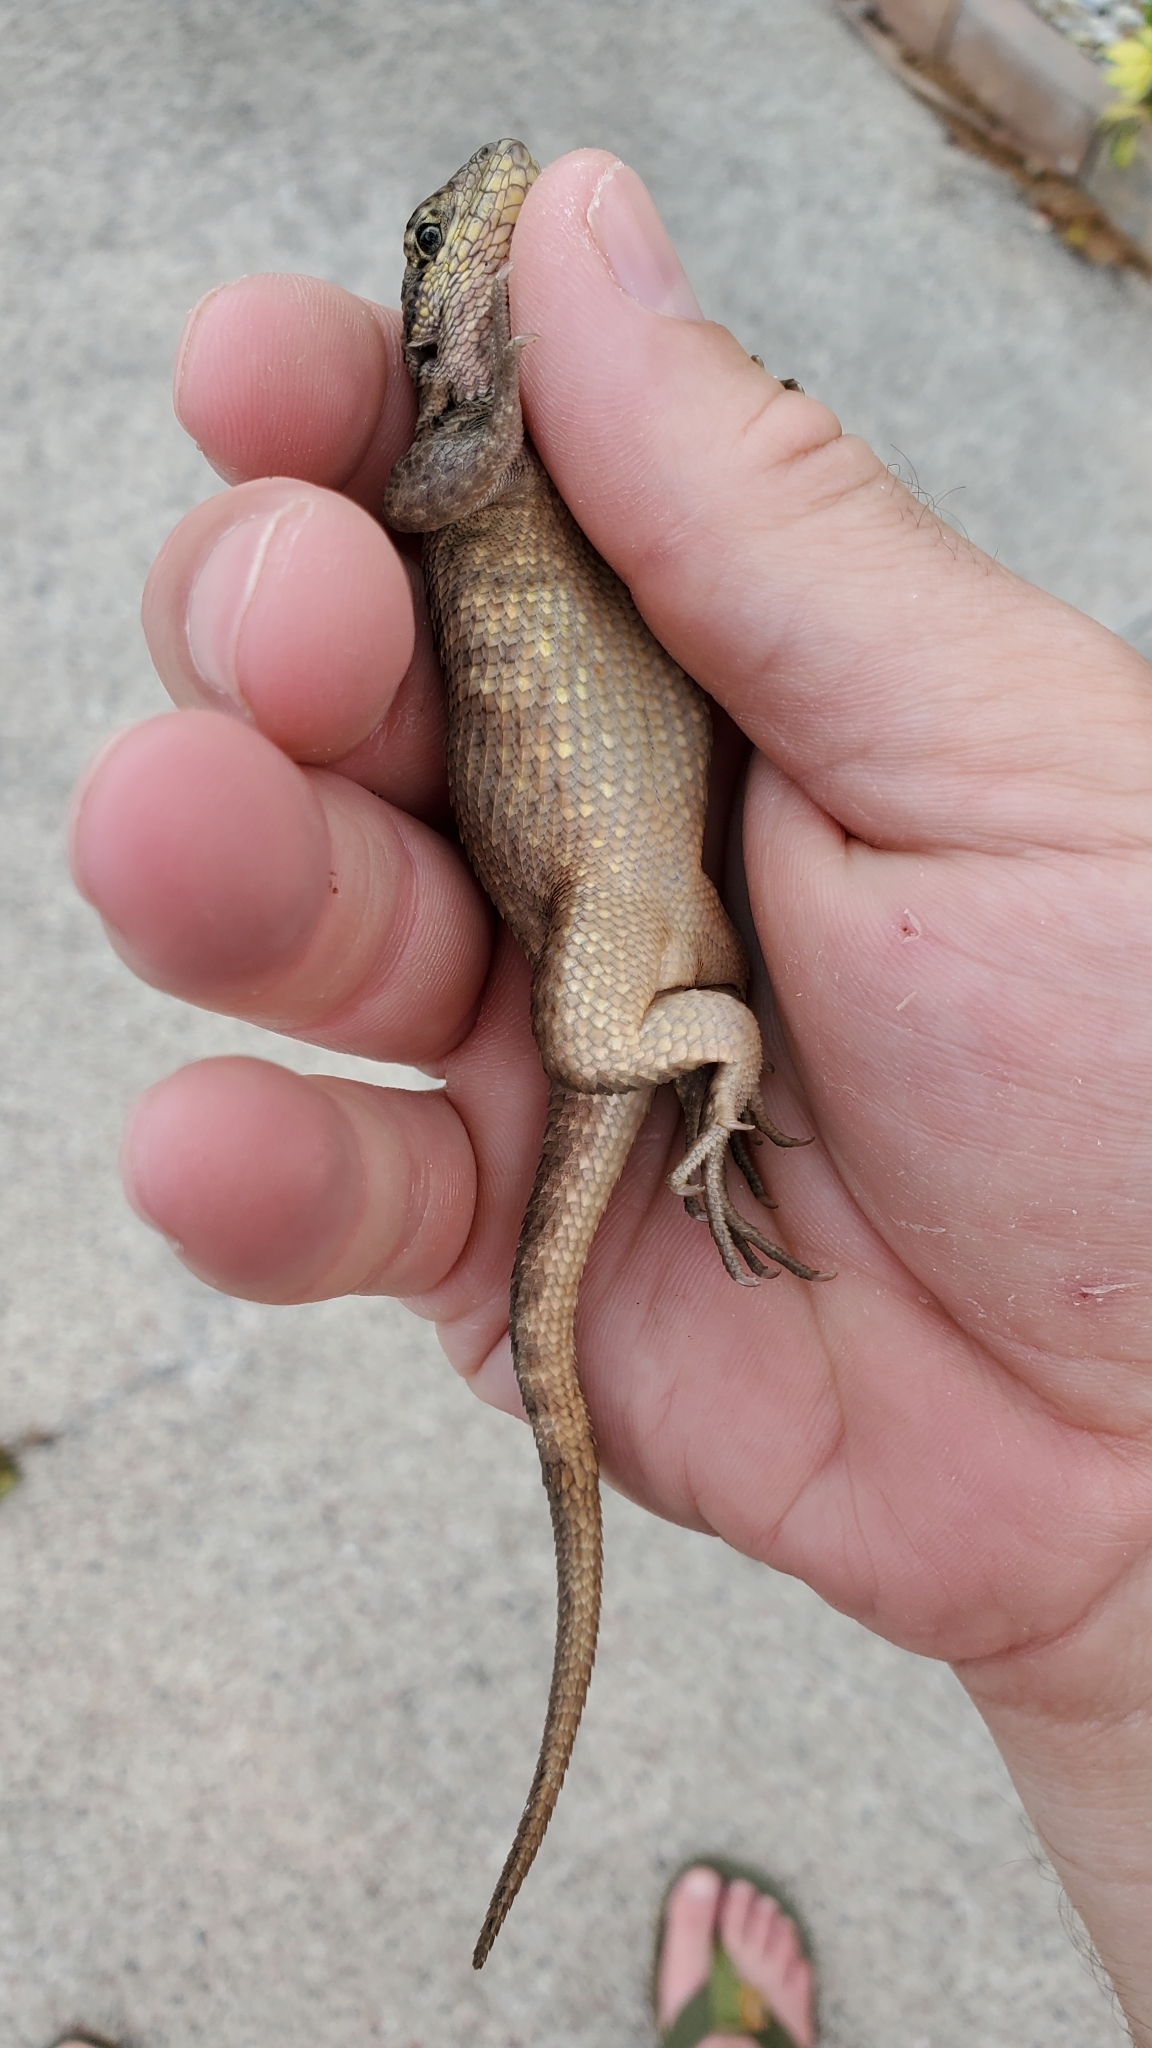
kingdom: Animalia
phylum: Chordata
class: Squamata
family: Leiocephalidae
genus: Leiocephalus
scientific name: Leiocephalus carinatus
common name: Northern curly-tailed lizard
